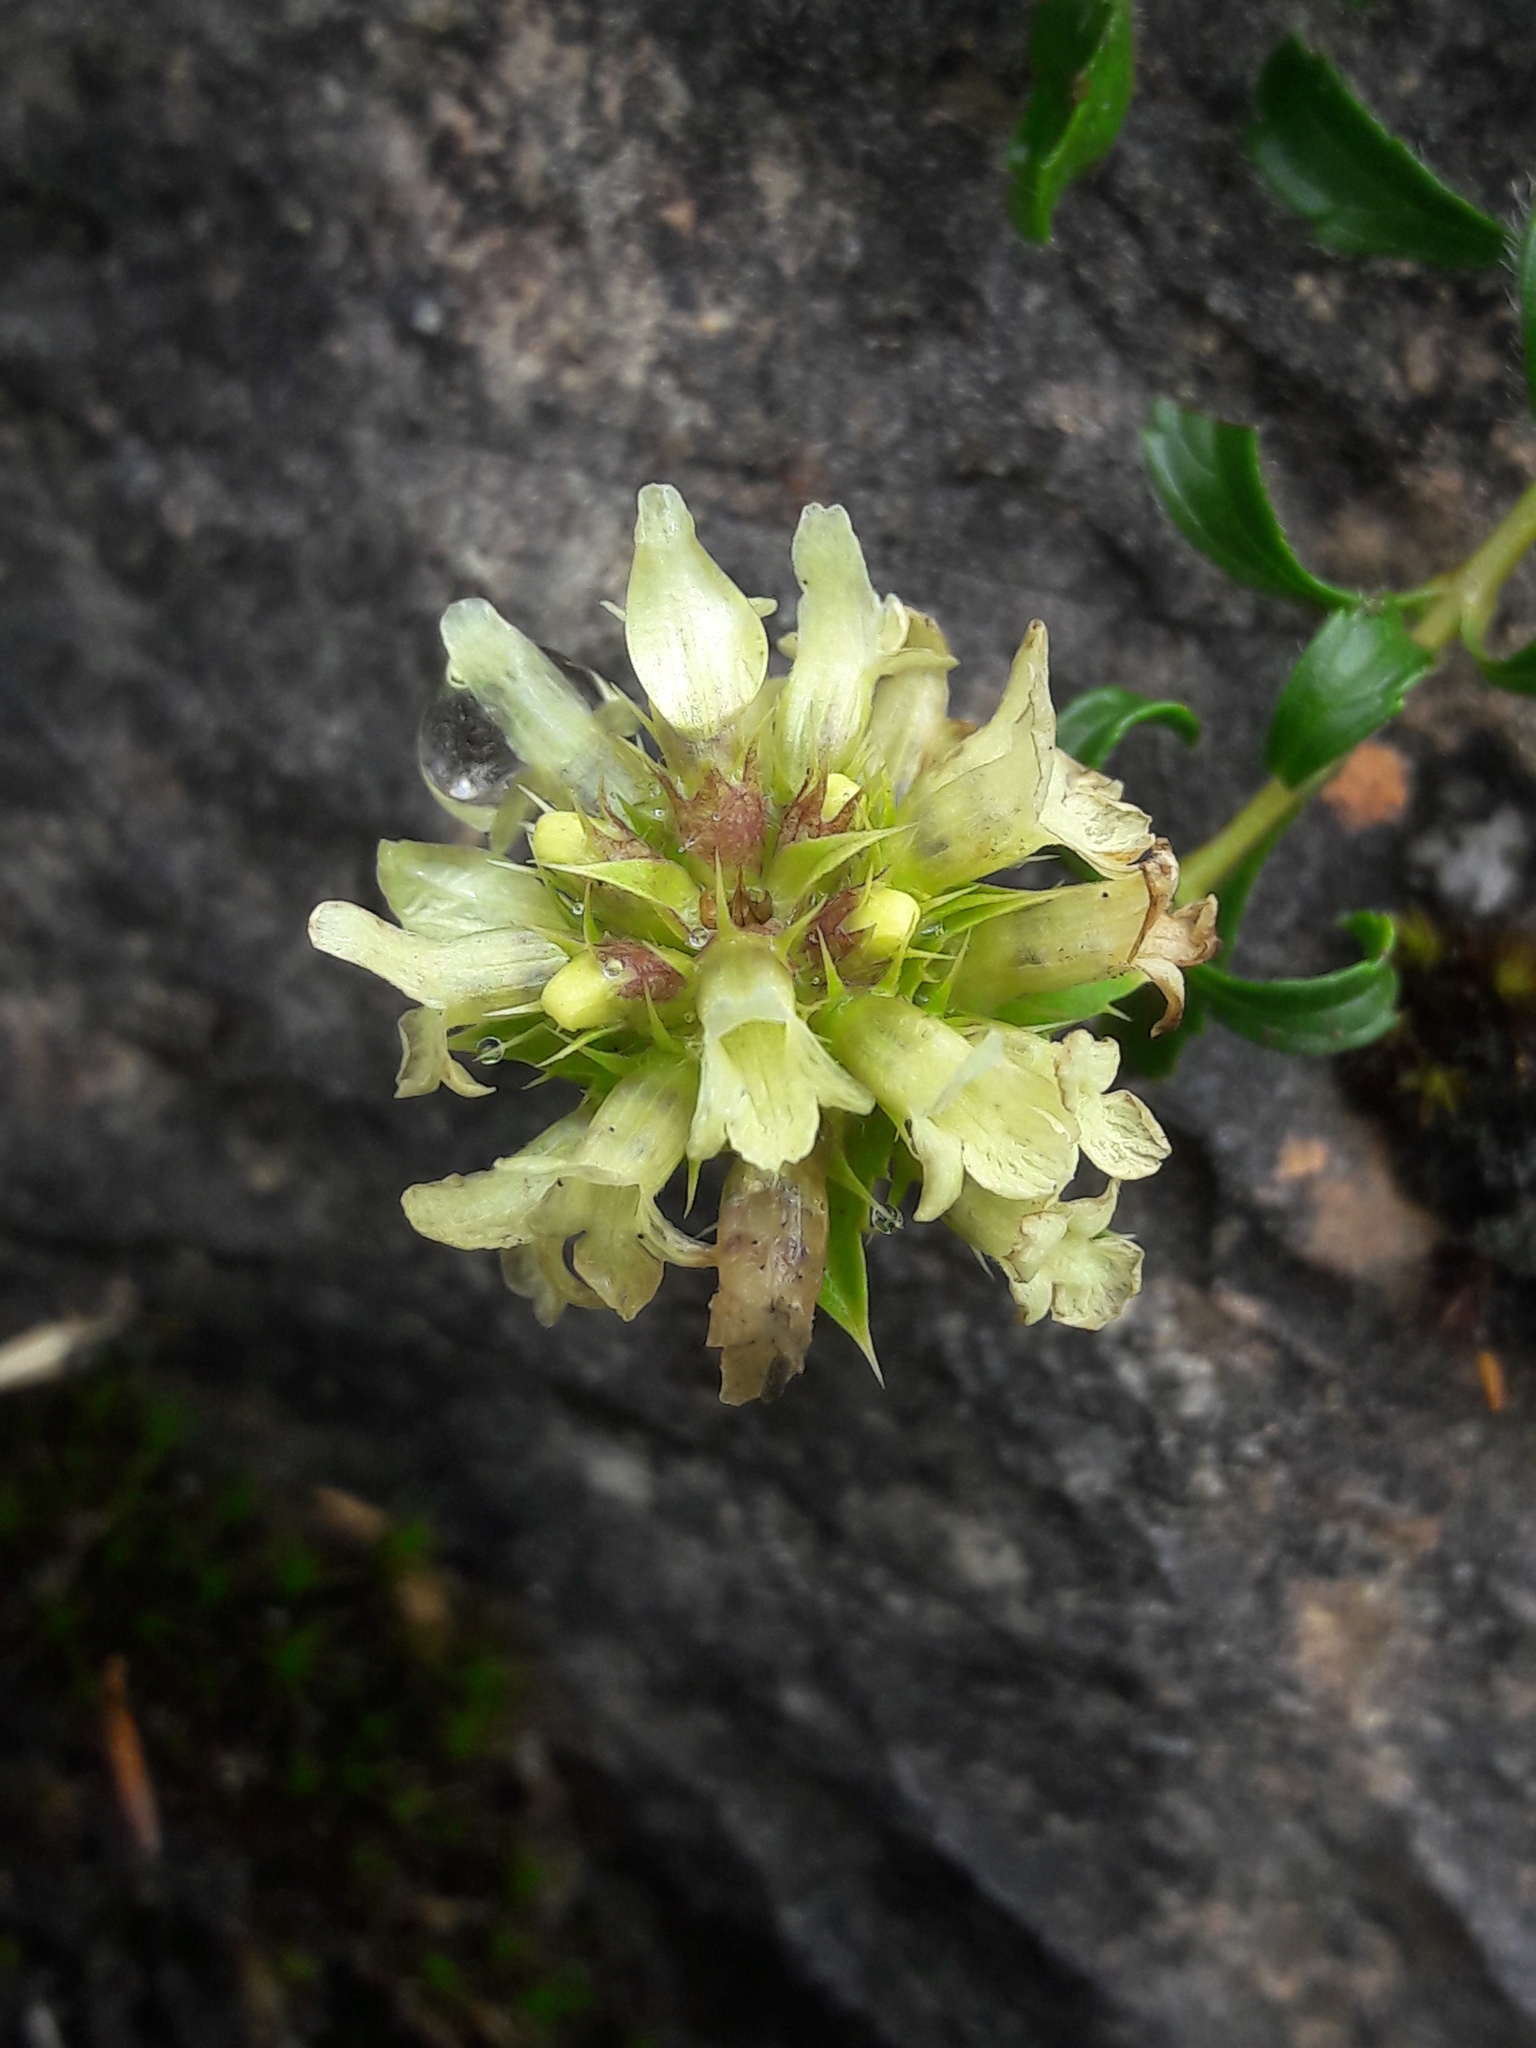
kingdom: Plantae
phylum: Tracheophyta
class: Magnoliopsida
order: Lamiales
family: Lamiaceae
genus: Sideritis
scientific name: Sideritis hyssopifolia
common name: Mountain tea
